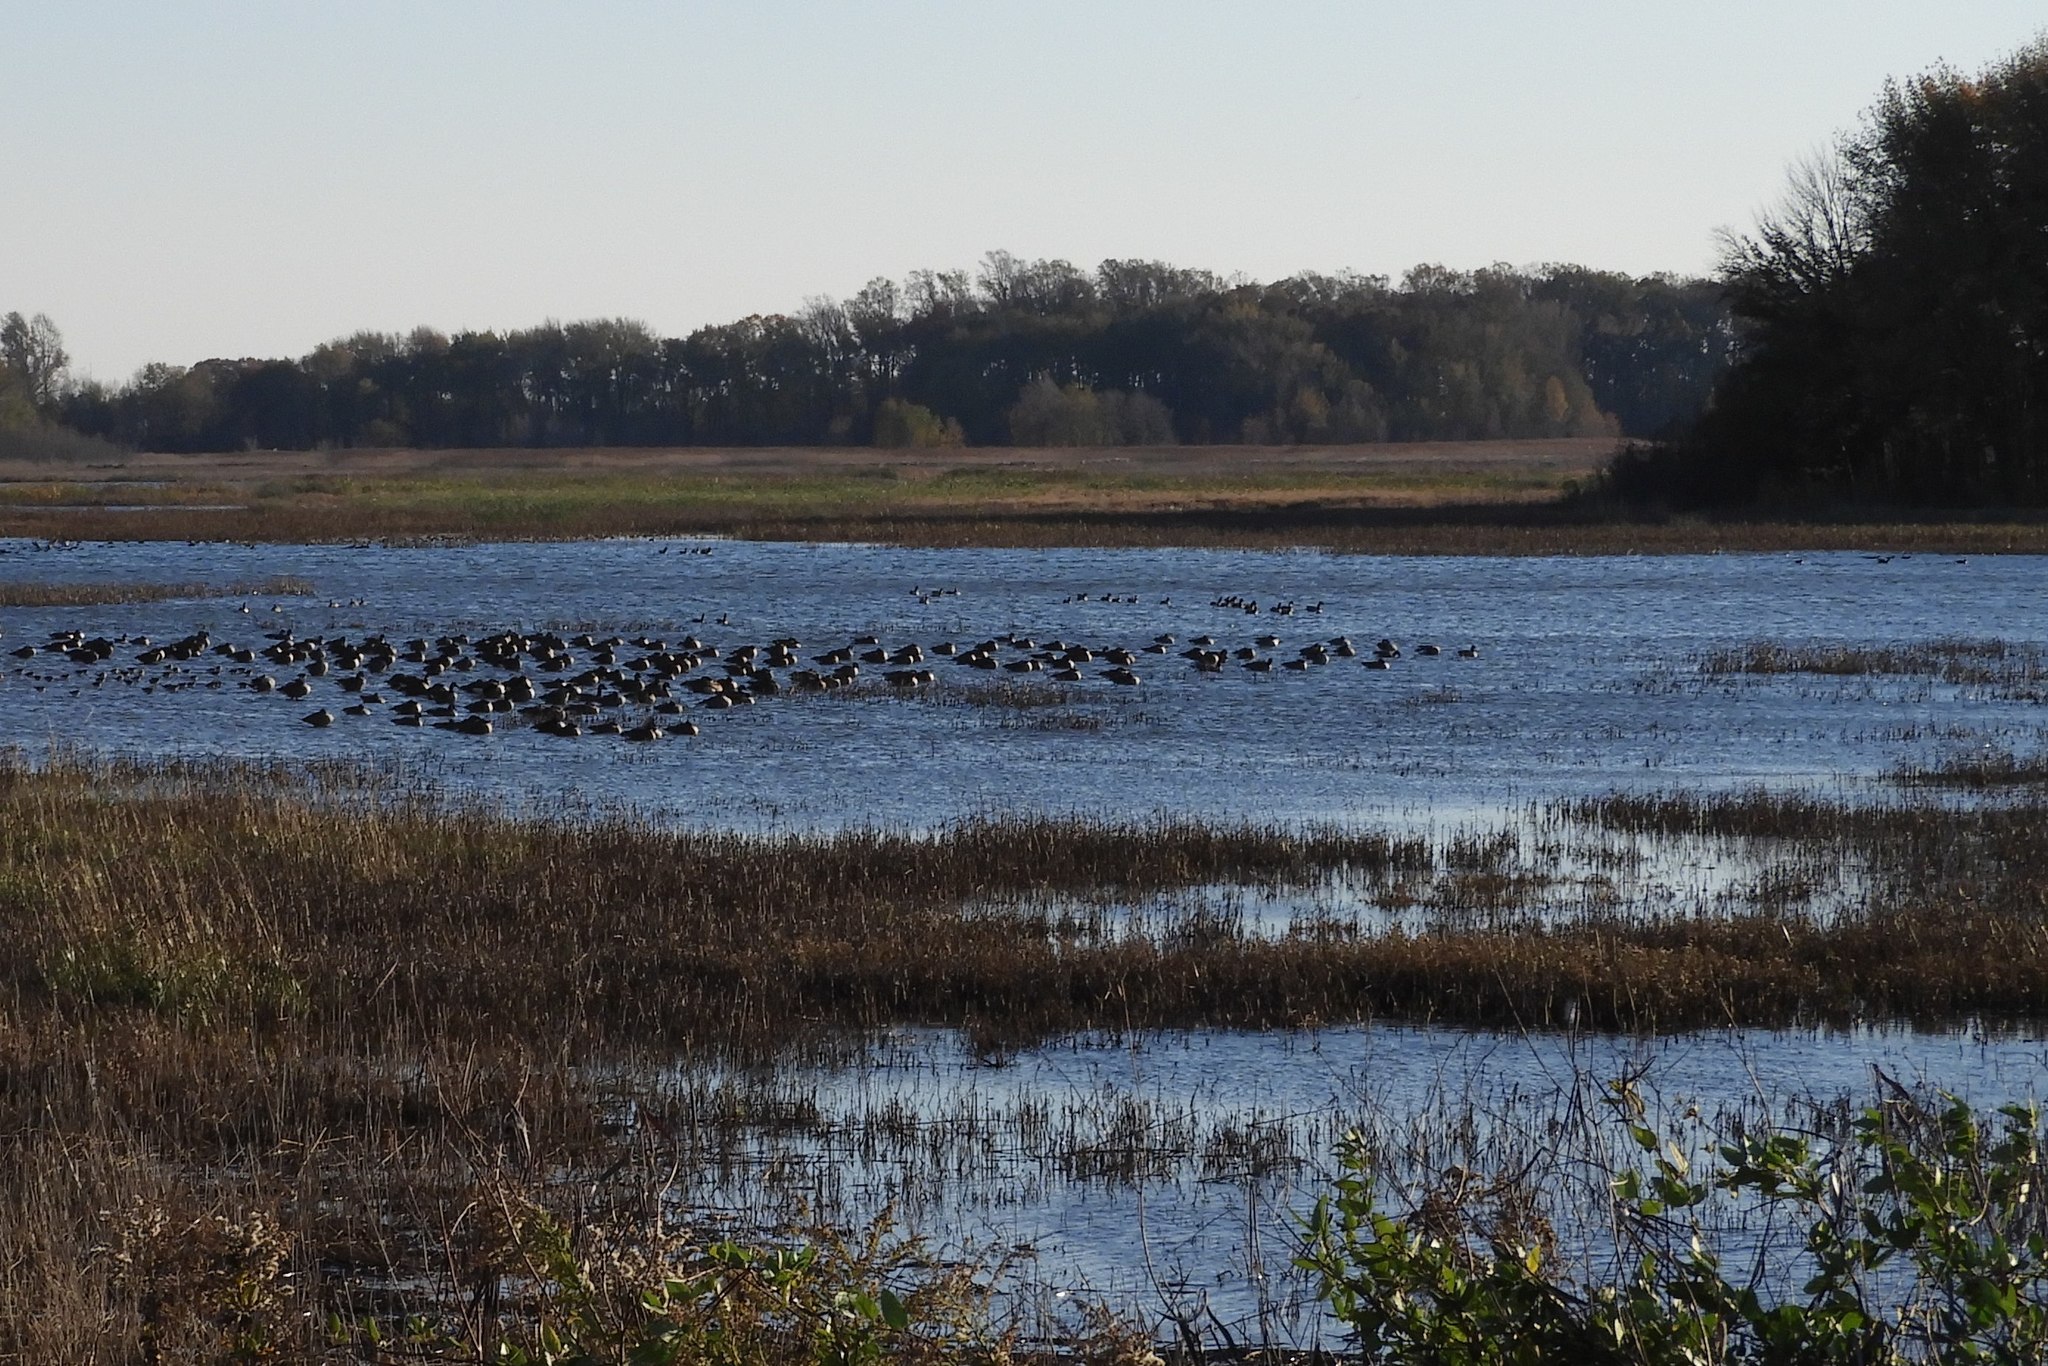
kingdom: Animalia
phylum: Chordata
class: Aves
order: Anseriformes
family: Anatidae
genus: Branta
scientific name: Branta hutchinsii
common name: Cackling goose
